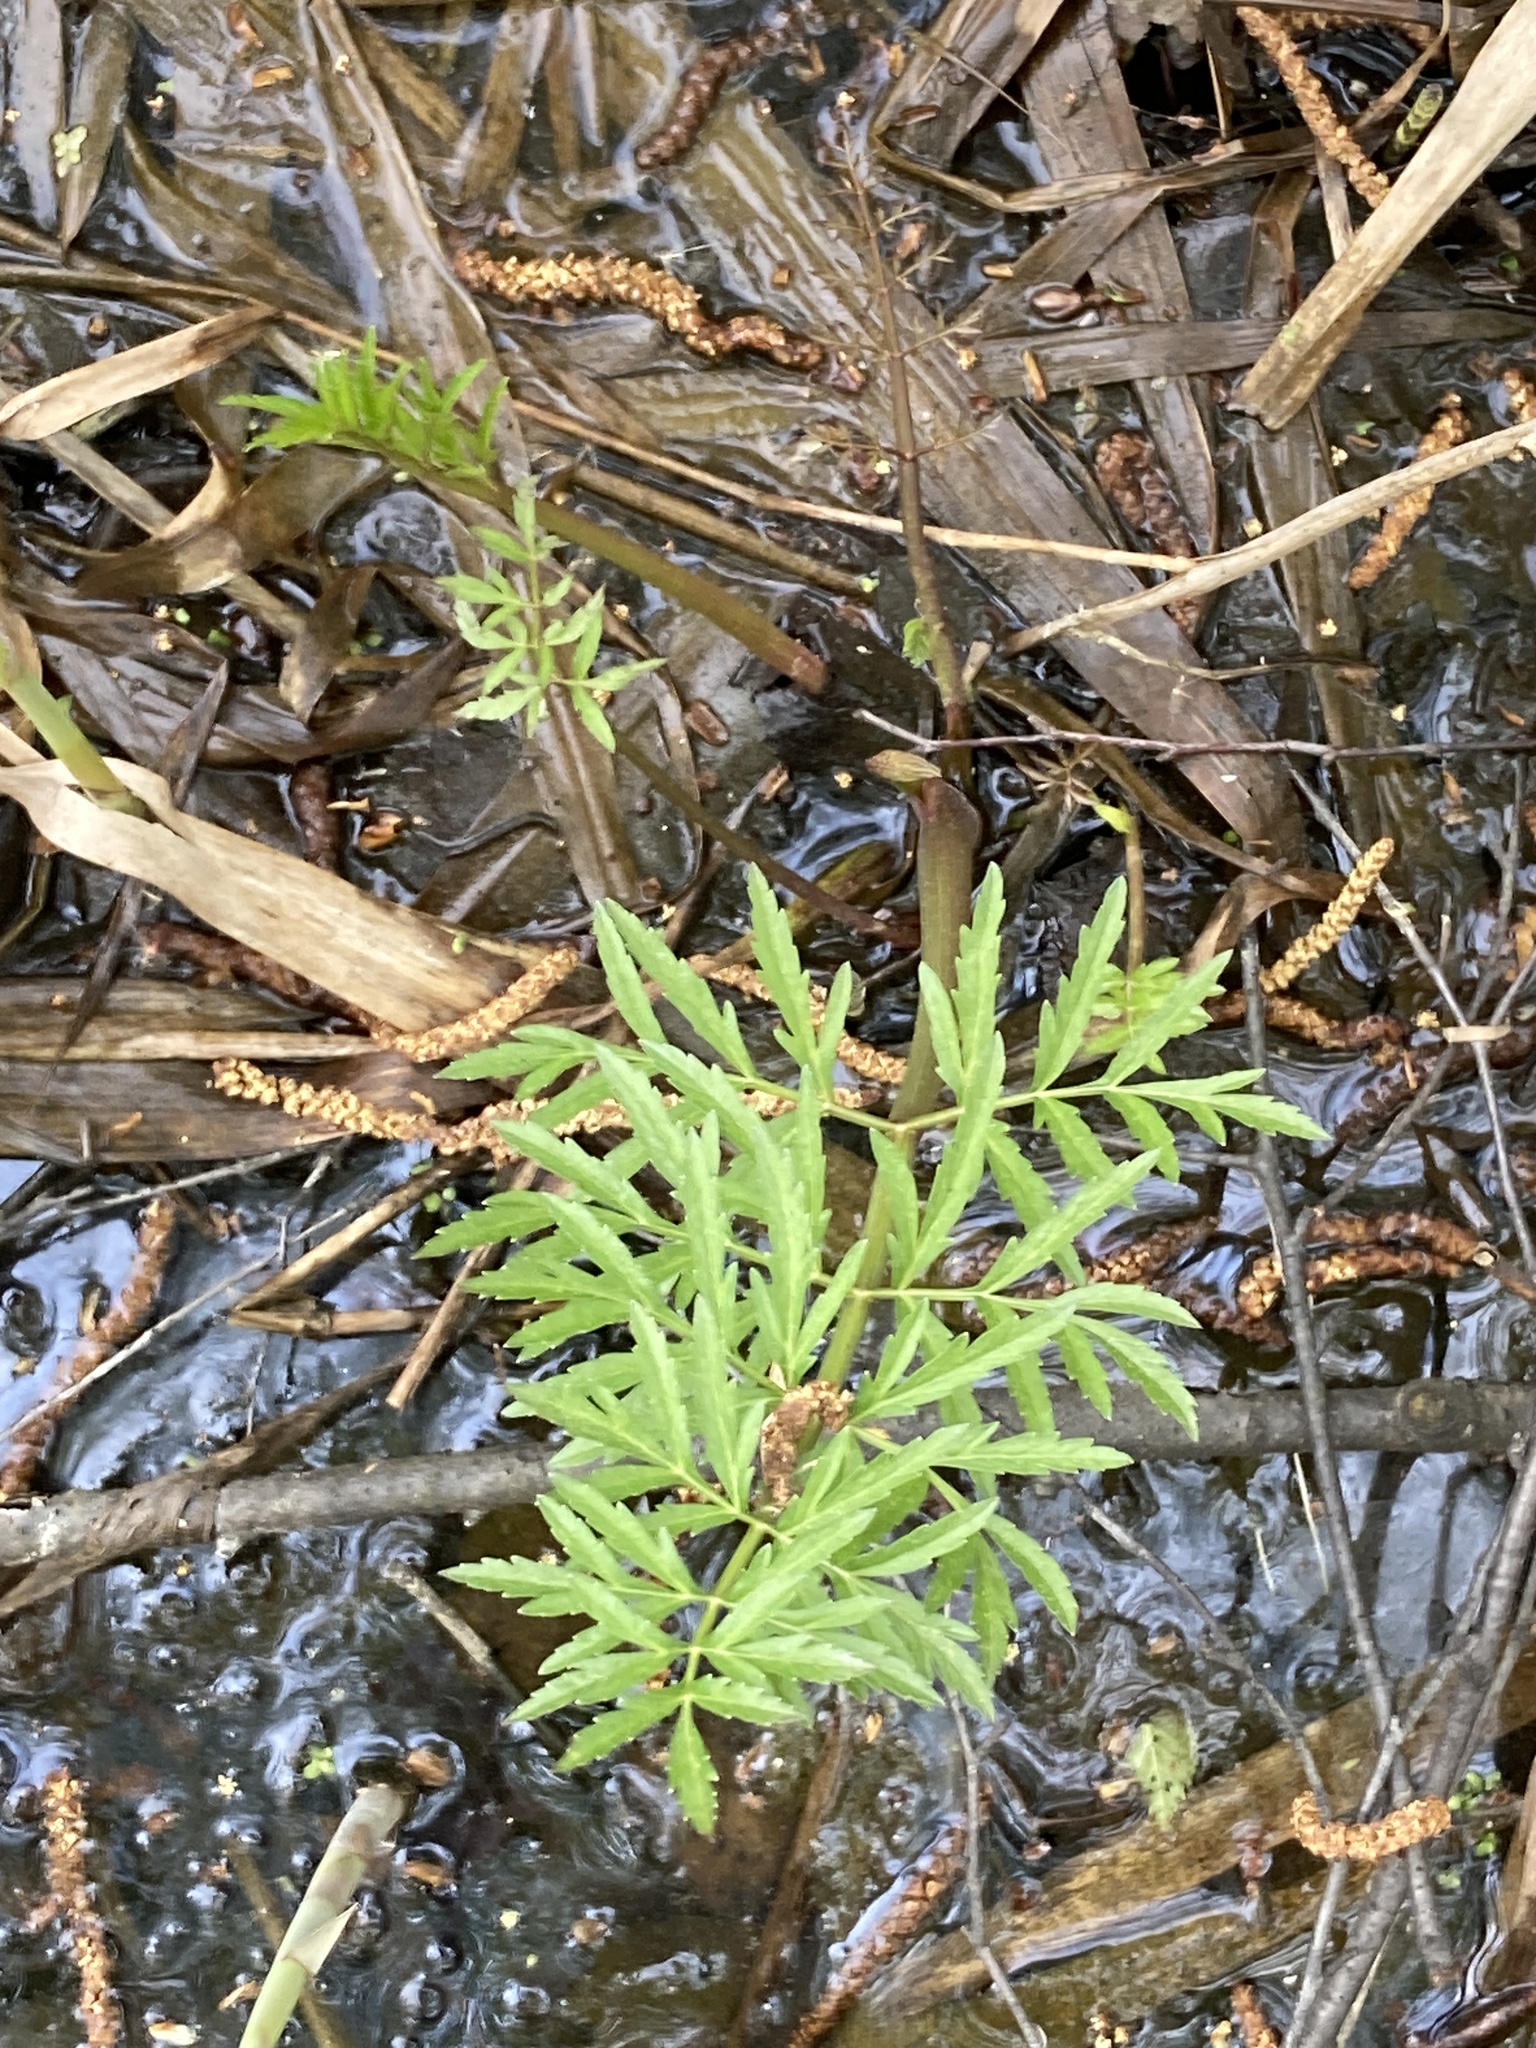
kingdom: Plantae
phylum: Tracheophyta
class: Magnoliopsida
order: Apiales
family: Apiaceae
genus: Cicuta
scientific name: Cicuta virosa
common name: Cowbane
